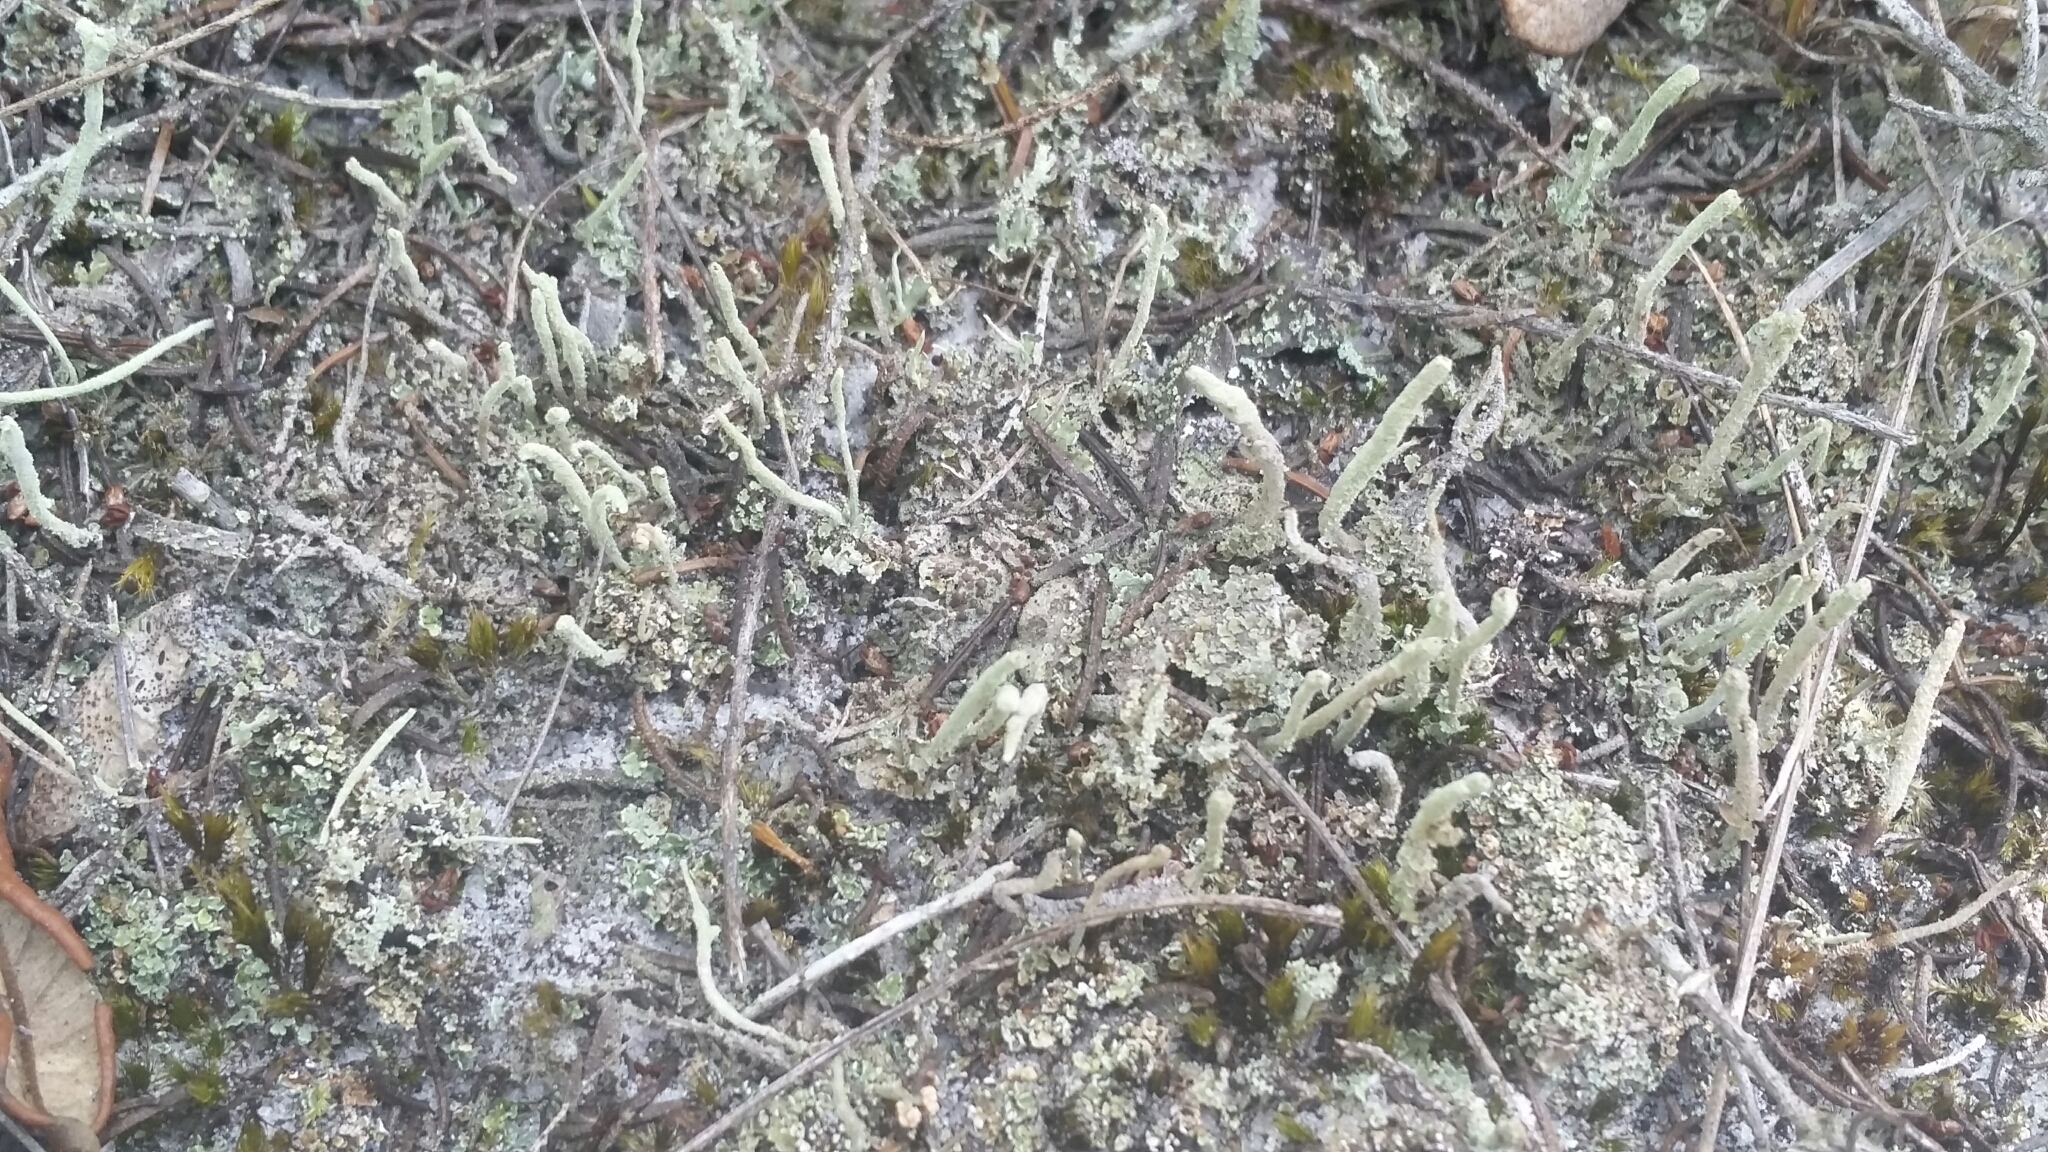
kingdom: Fungi
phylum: Ascomycota
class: Lecanoromycetes
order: Lecanorales
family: Cladoniaceae
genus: Cladonia
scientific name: Cladonia subradiata
